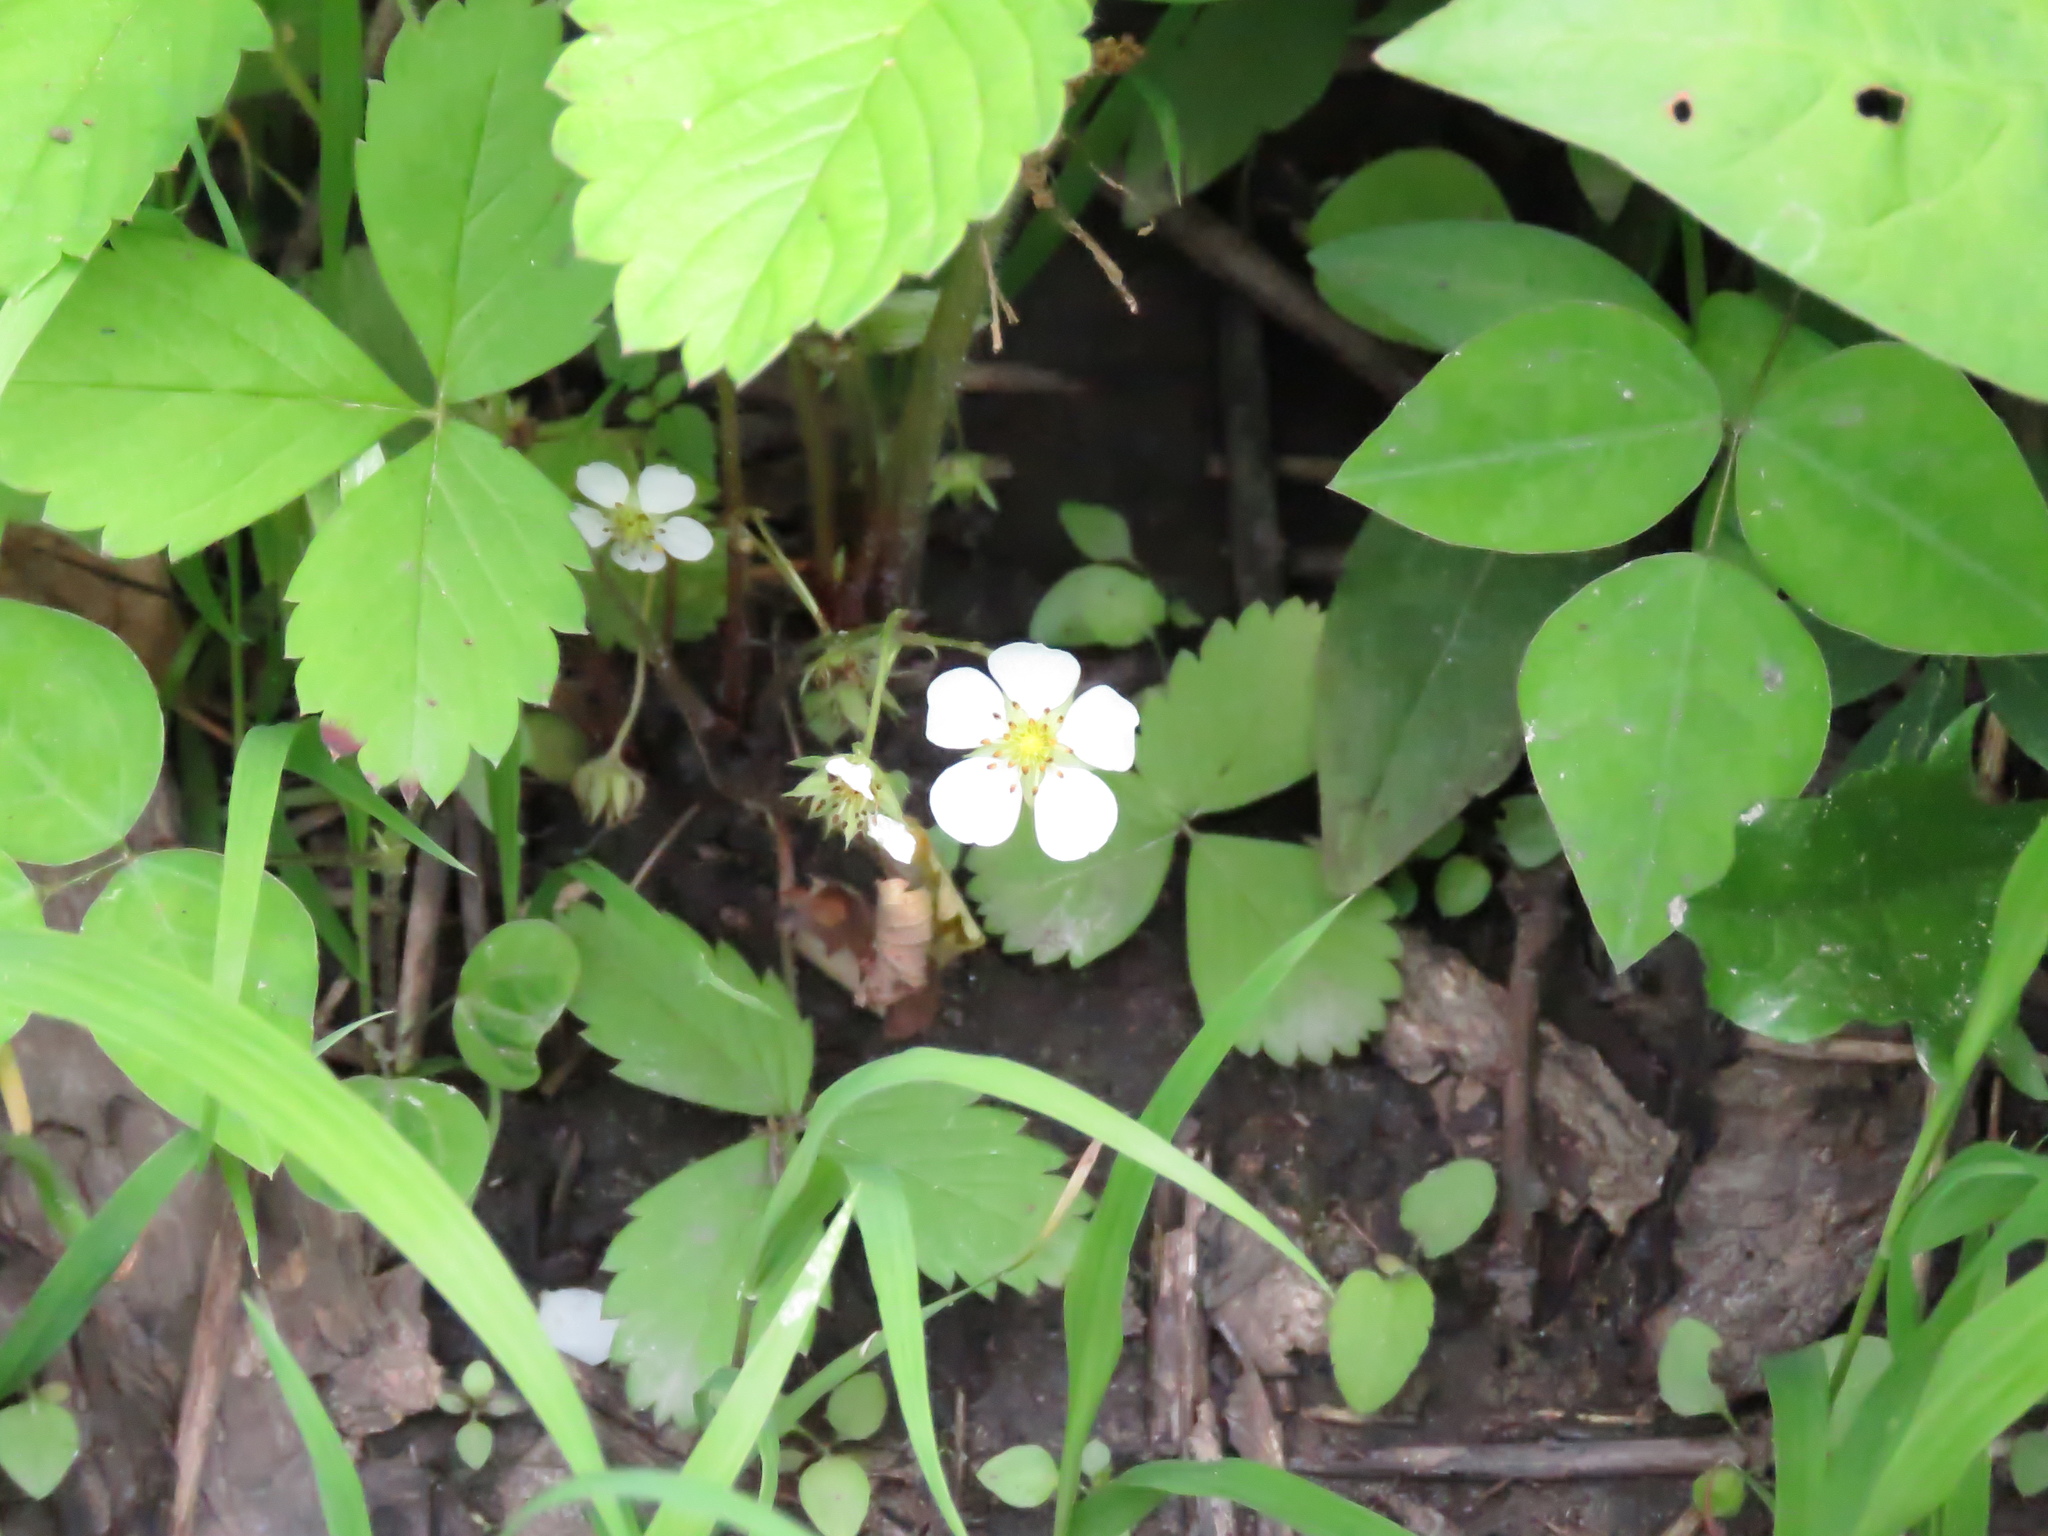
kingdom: Plantae
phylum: Tracheophyta
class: Magnoliopsida
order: Rosales
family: Rosaceae
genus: Fragaria
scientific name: Fragaria virginiana
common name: Thickleaved wild strawberry
